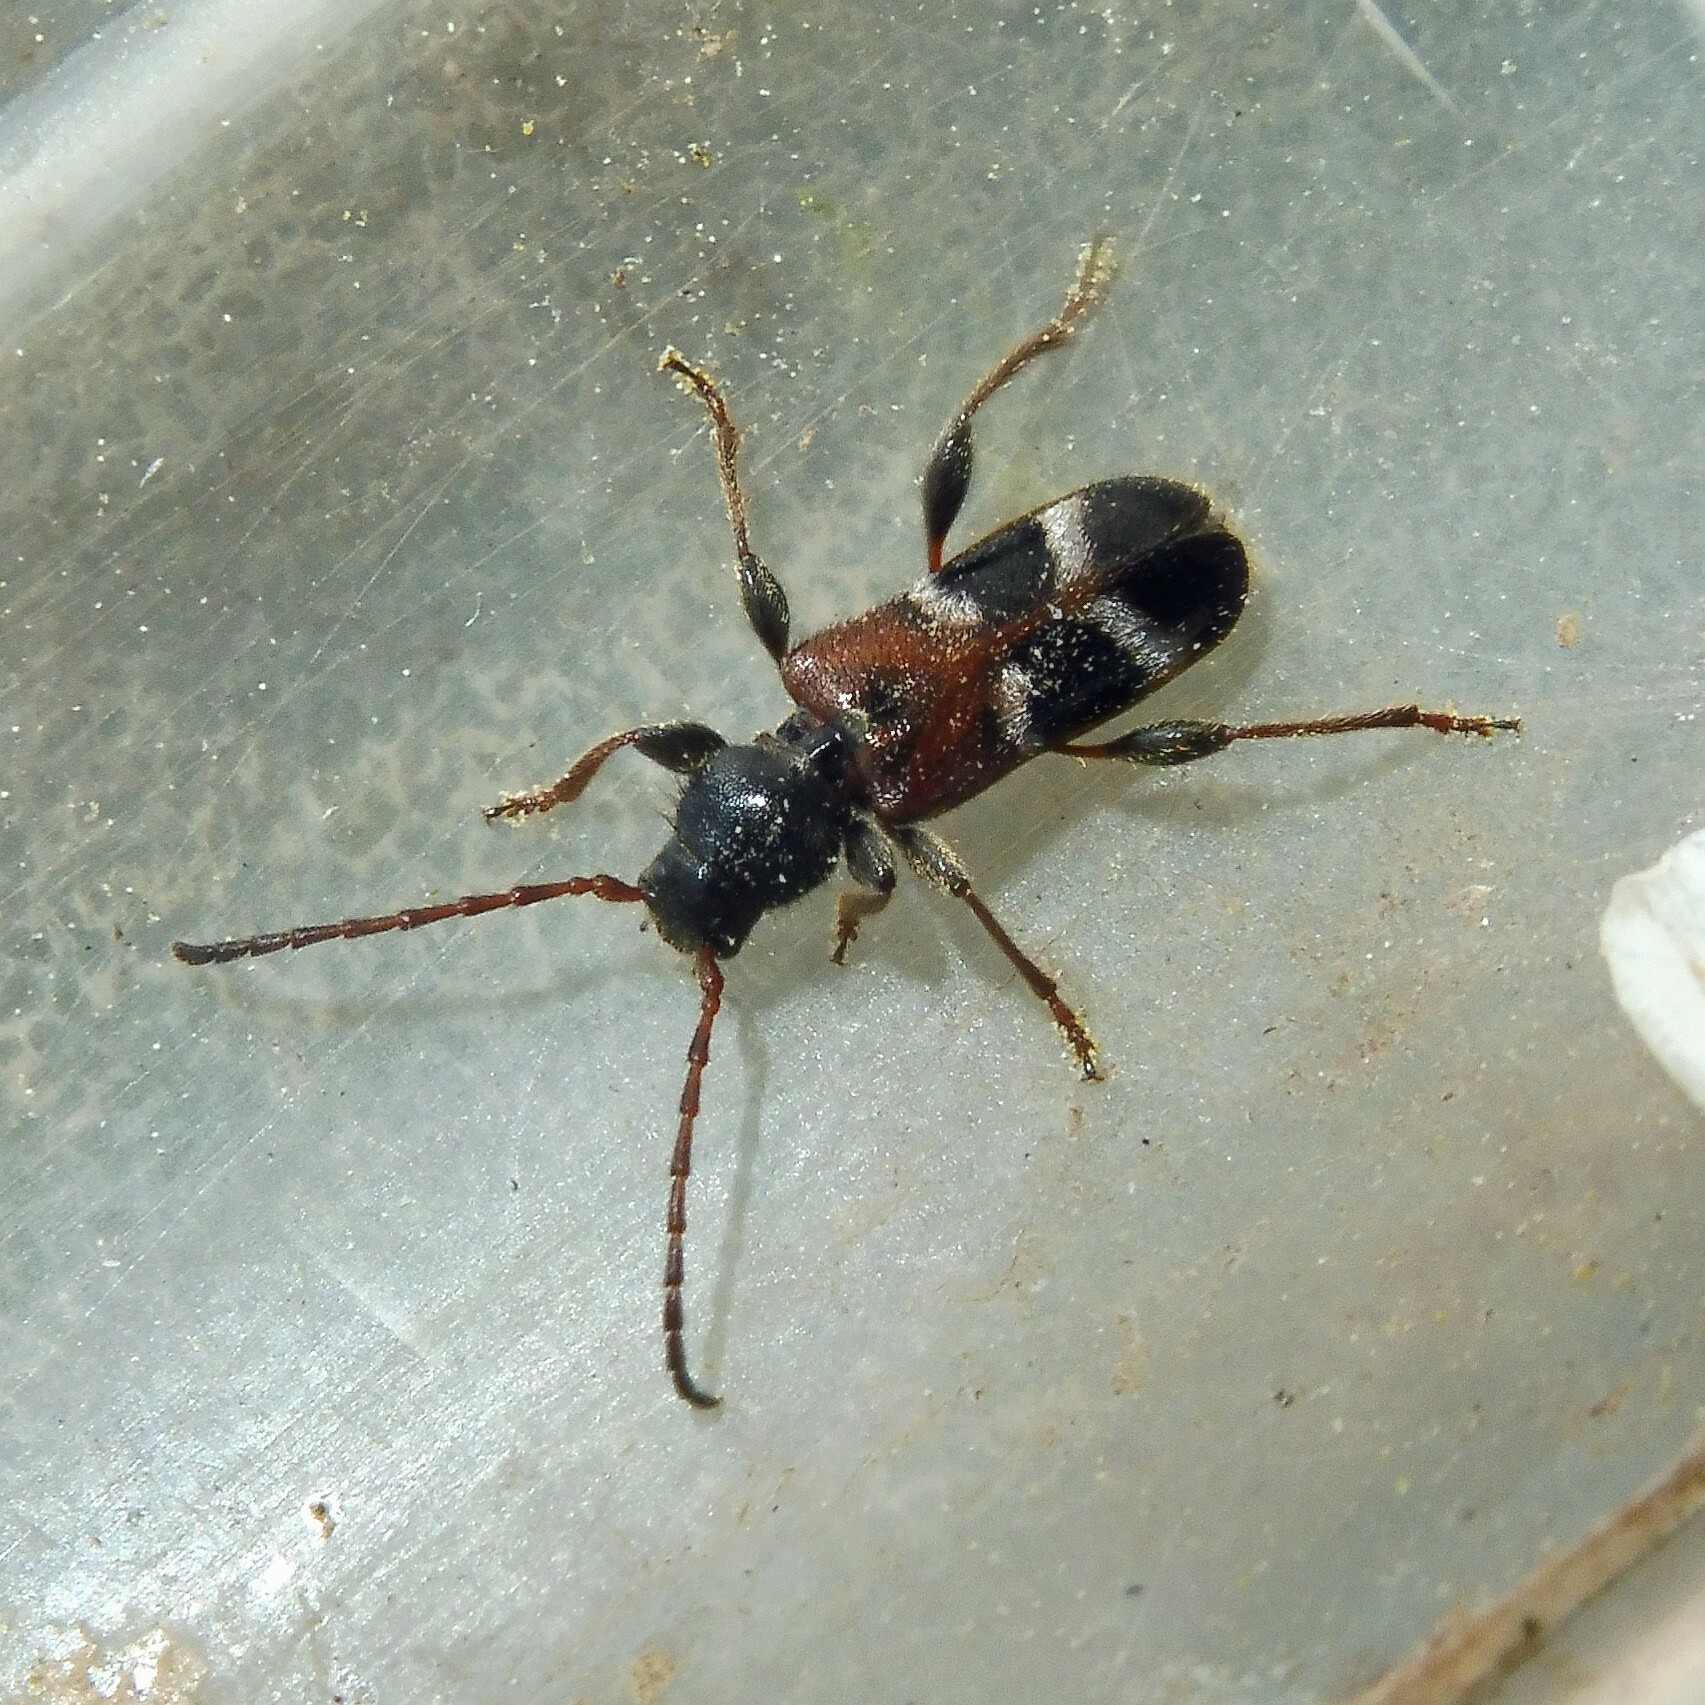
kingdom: Animalia
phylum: Arthropoda
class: Insecta
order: Coleoptera
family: Cerambycidae
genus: Poecilium
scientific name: Poecilium alni
